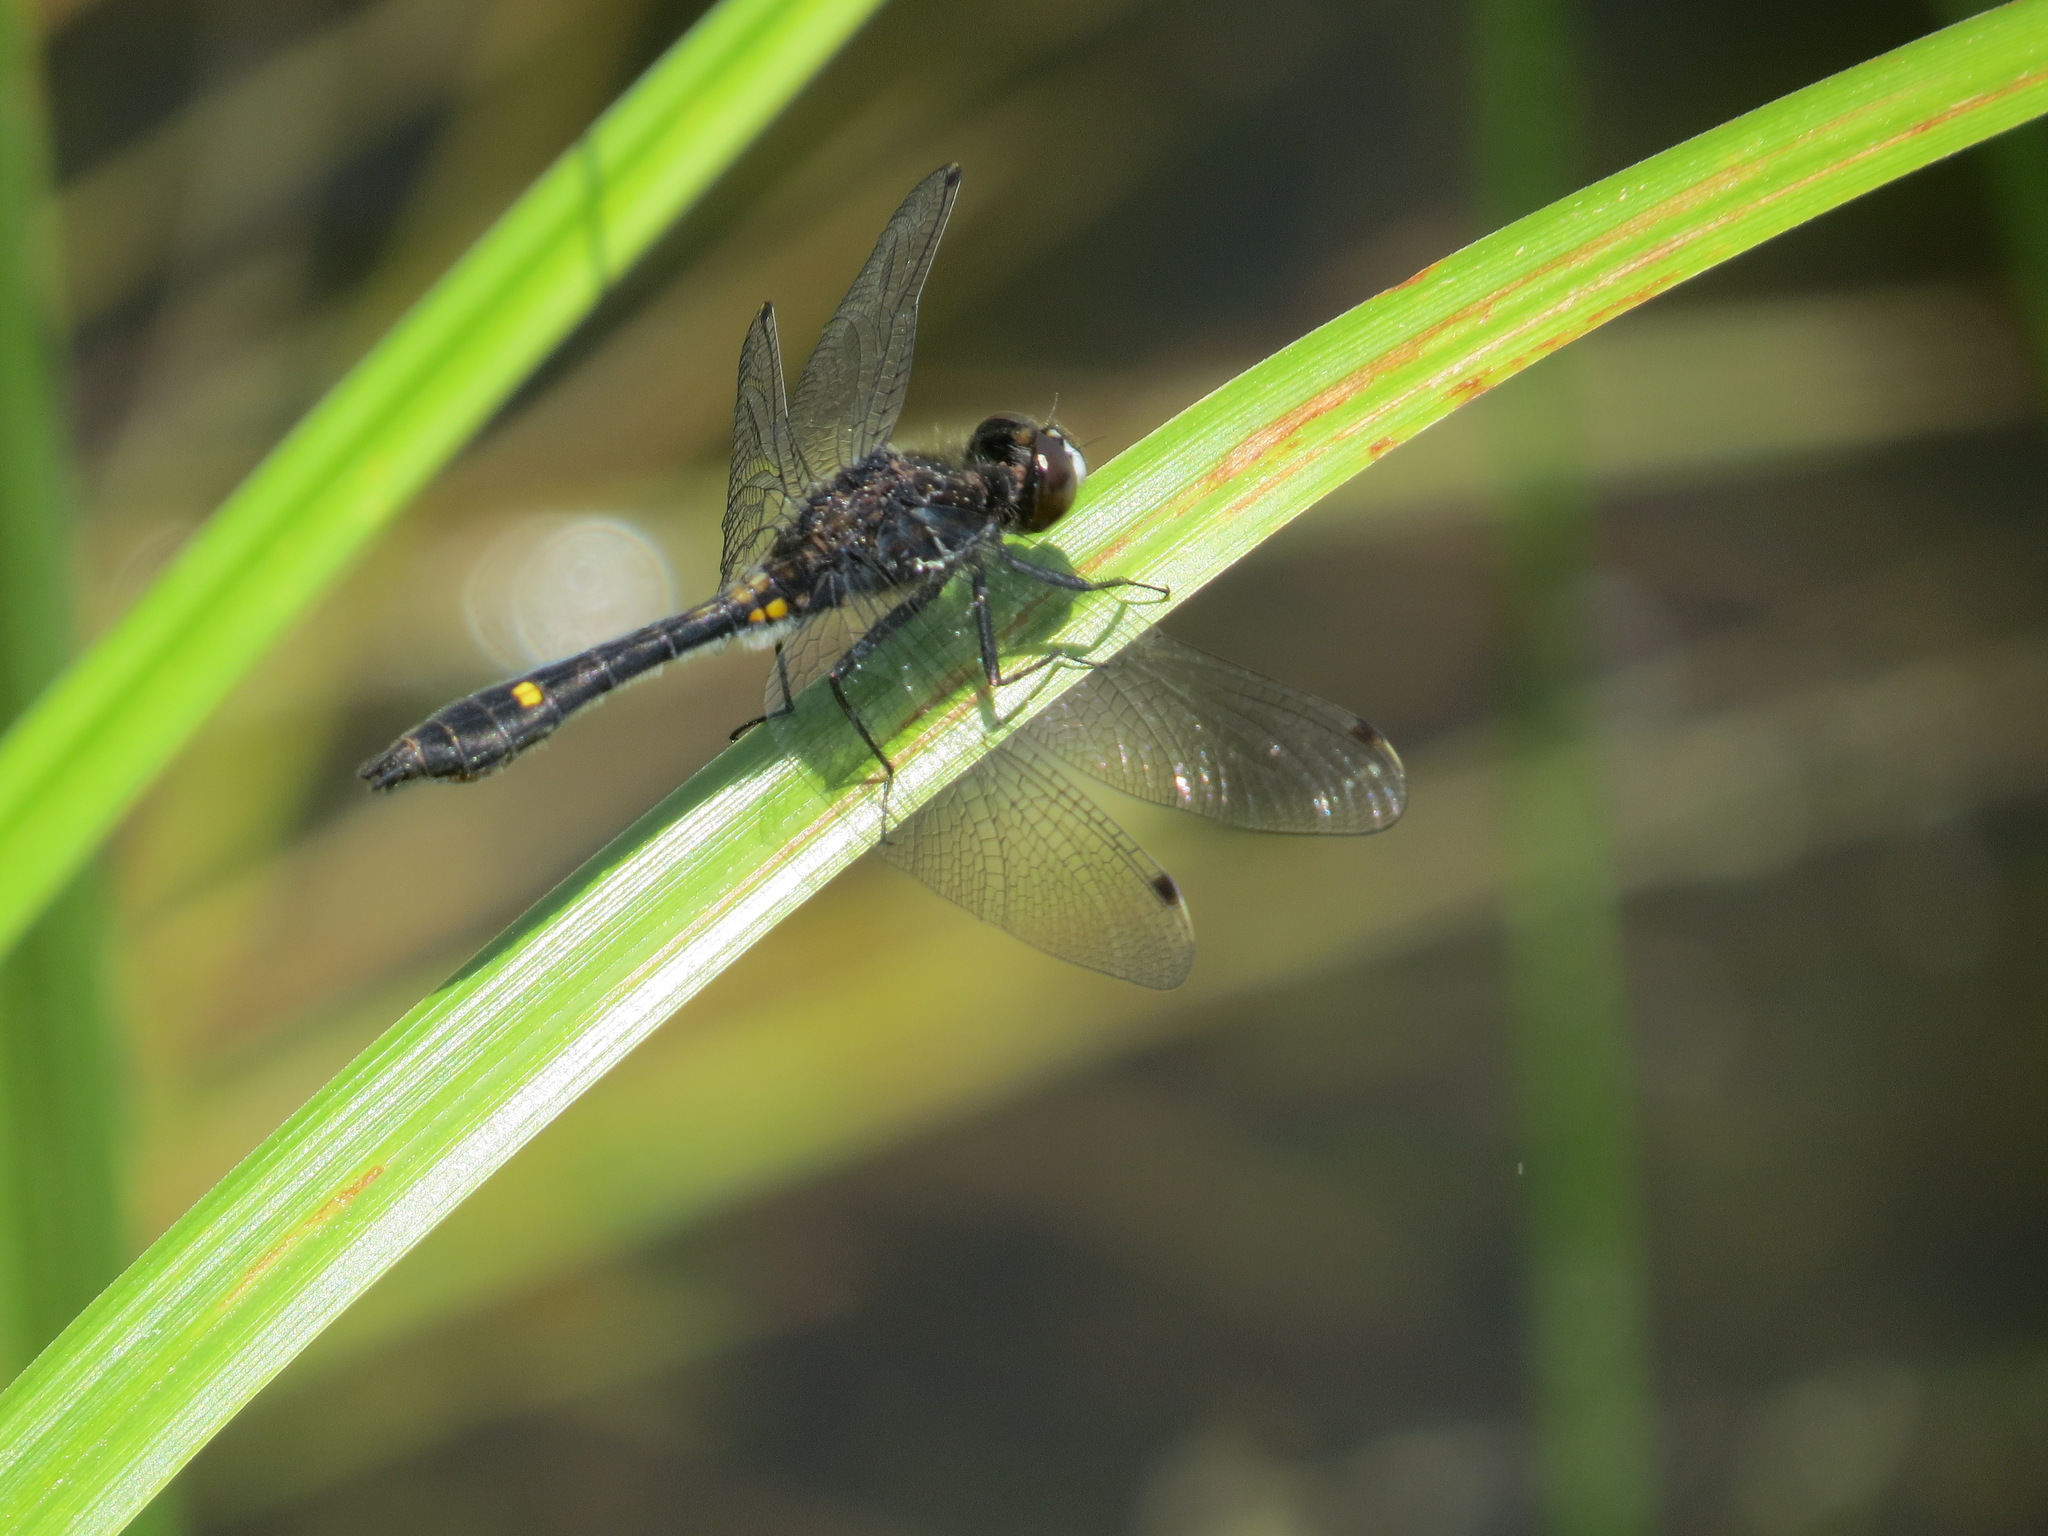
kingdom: Animalia
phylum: Arthropoda
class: Insecta
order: Odonata
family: Libellulidae
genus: Leucorrhinia
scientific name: Leucorrhinia intacta
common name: Dot-tailed whiteface
